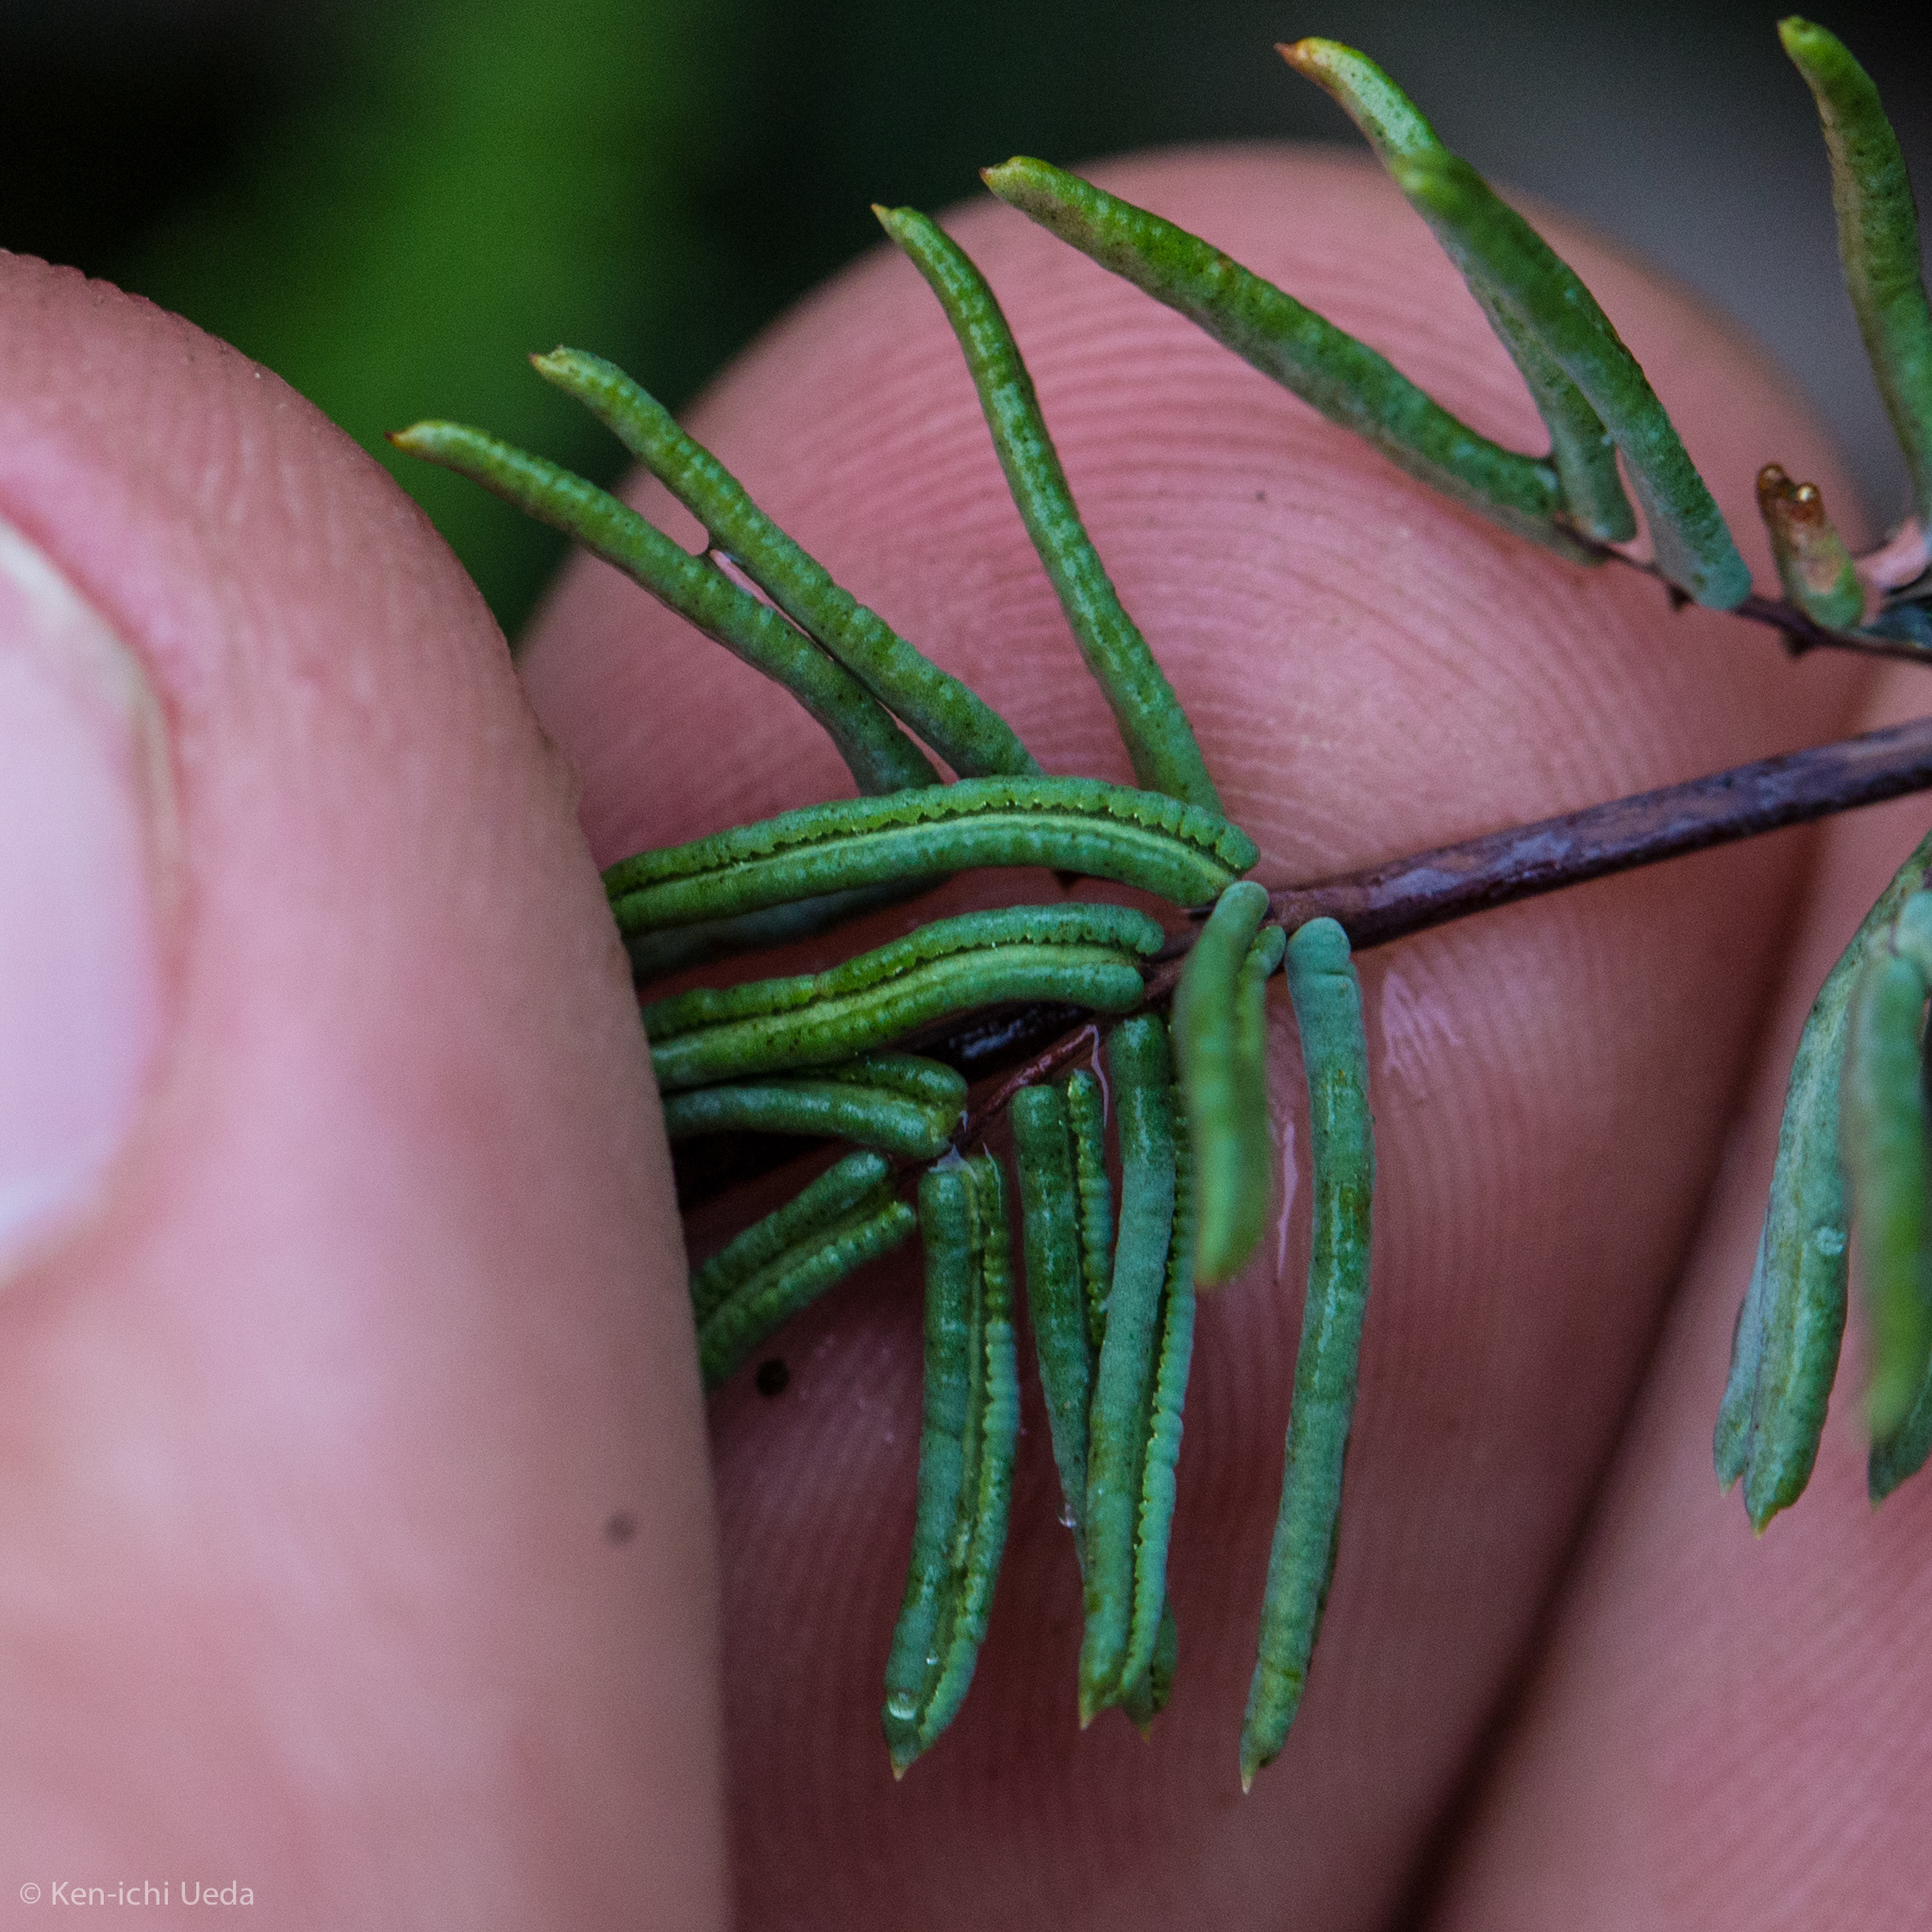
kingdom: Plantae
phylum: Tracheophyta
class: Polypodiopsida
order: Polypodiales
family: Pteridaceae
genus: Pellaea
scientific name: Pellaea brachyptera
